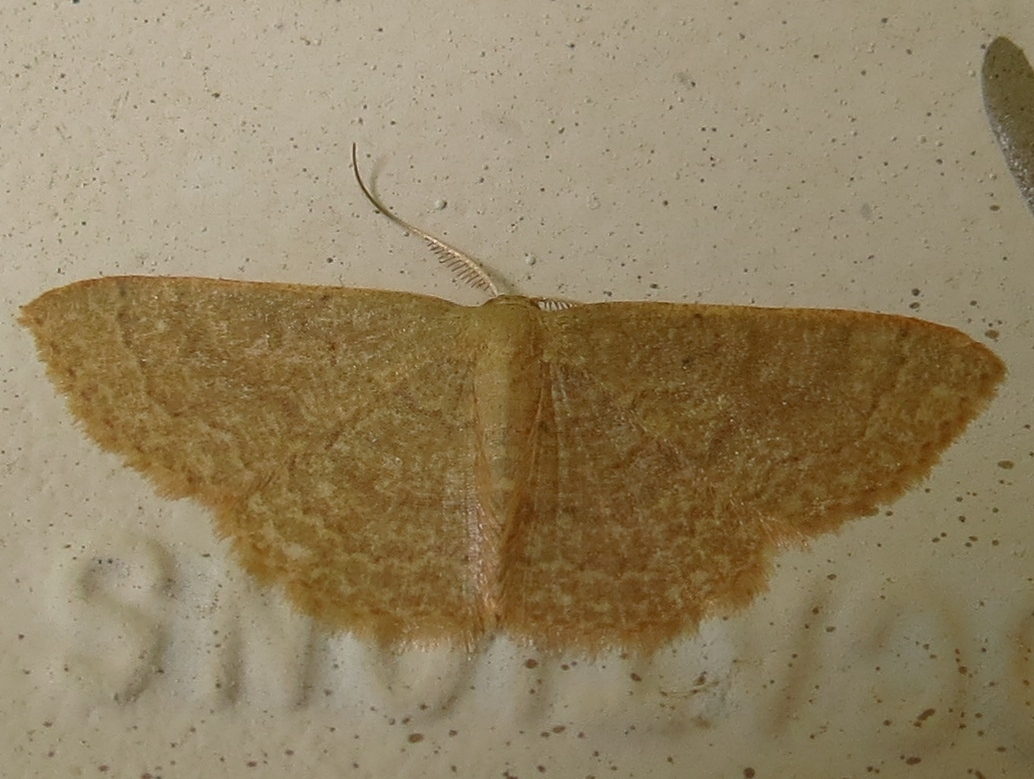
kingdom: Animalia
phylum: Arthropoda
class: Insecta
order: Lepidoptera
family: Geometridae
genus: Pleuroprucha
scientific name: Pleuroprucha insulsaria
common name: Common tan wave
